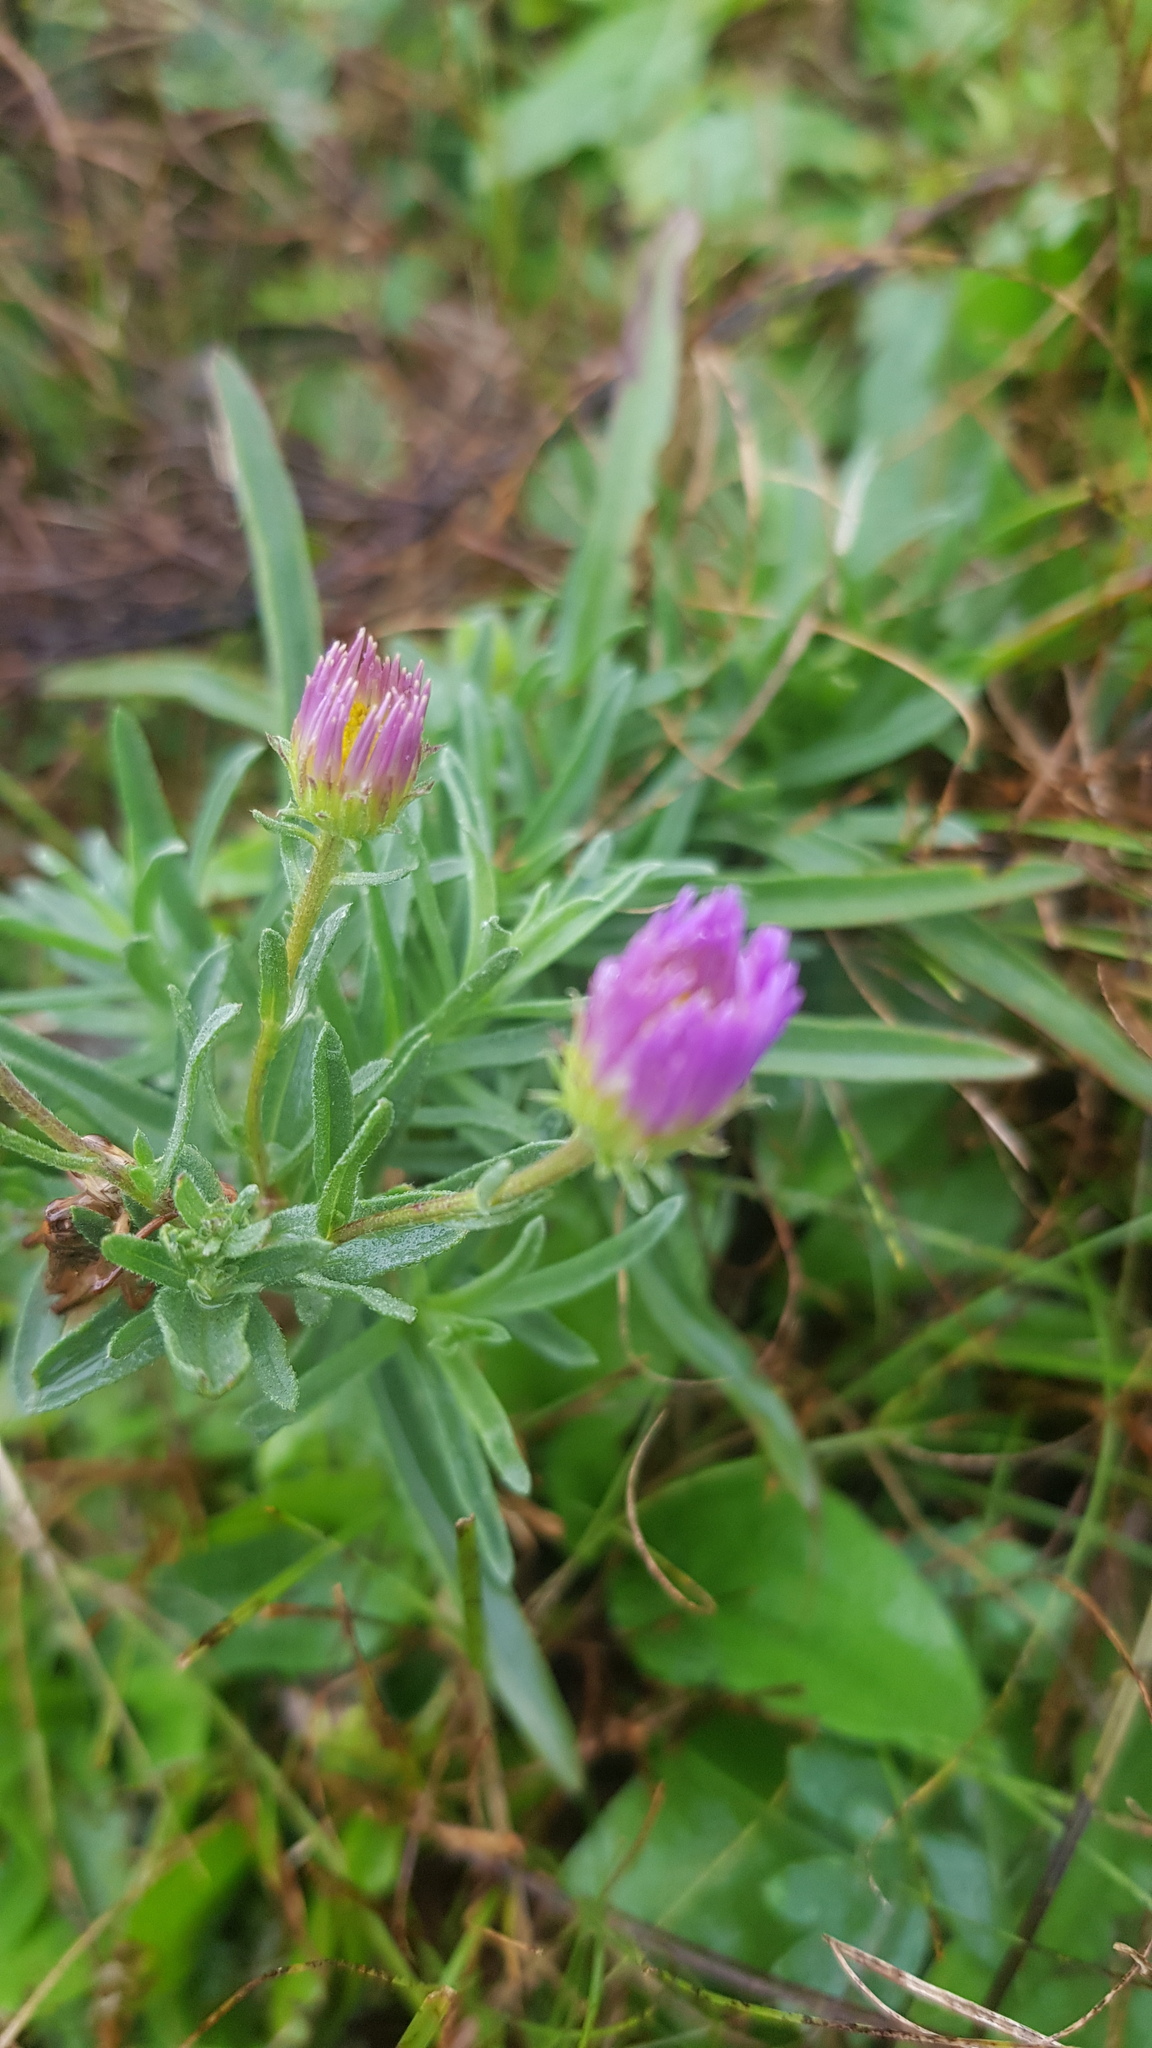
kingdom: Plantae
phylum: Tracheophyta
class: Magnoliopsida
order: Asterales
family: Asteraceae
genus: Aster
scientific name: Aster alpinus
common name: Alpine aster
